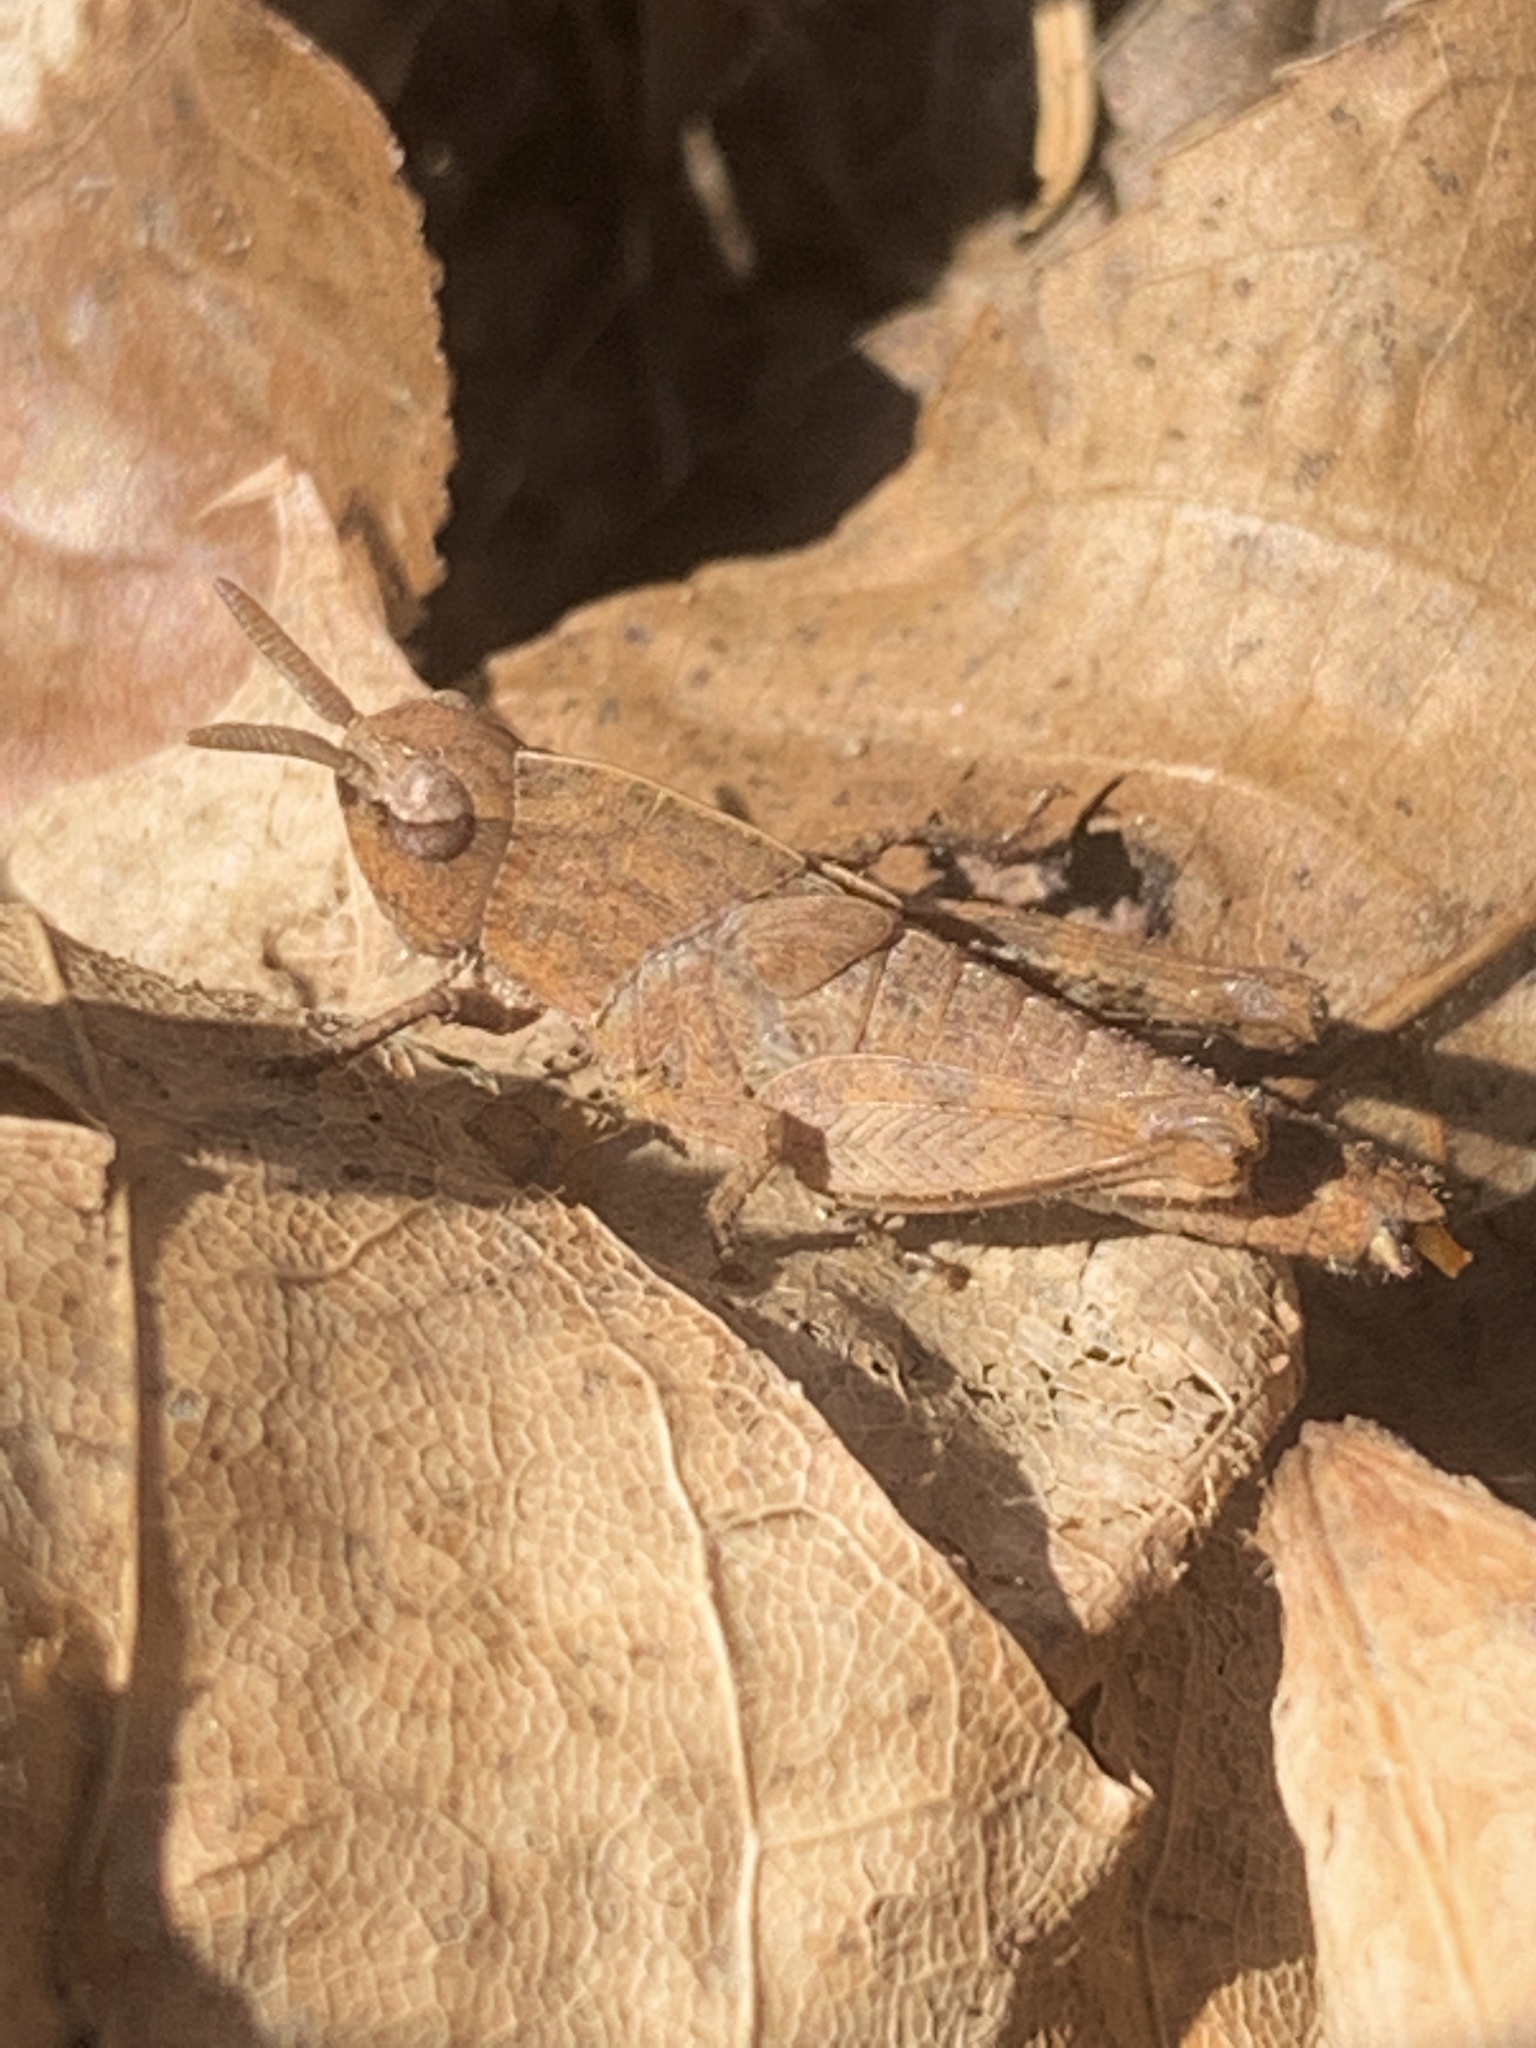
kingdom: Animalia
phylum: Arthropoda
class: Insecta
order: Orthoptera
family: Acrididae
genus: Chortophaga
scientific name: Chortophaga viridifasciata
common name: Green-striped grasshopper
